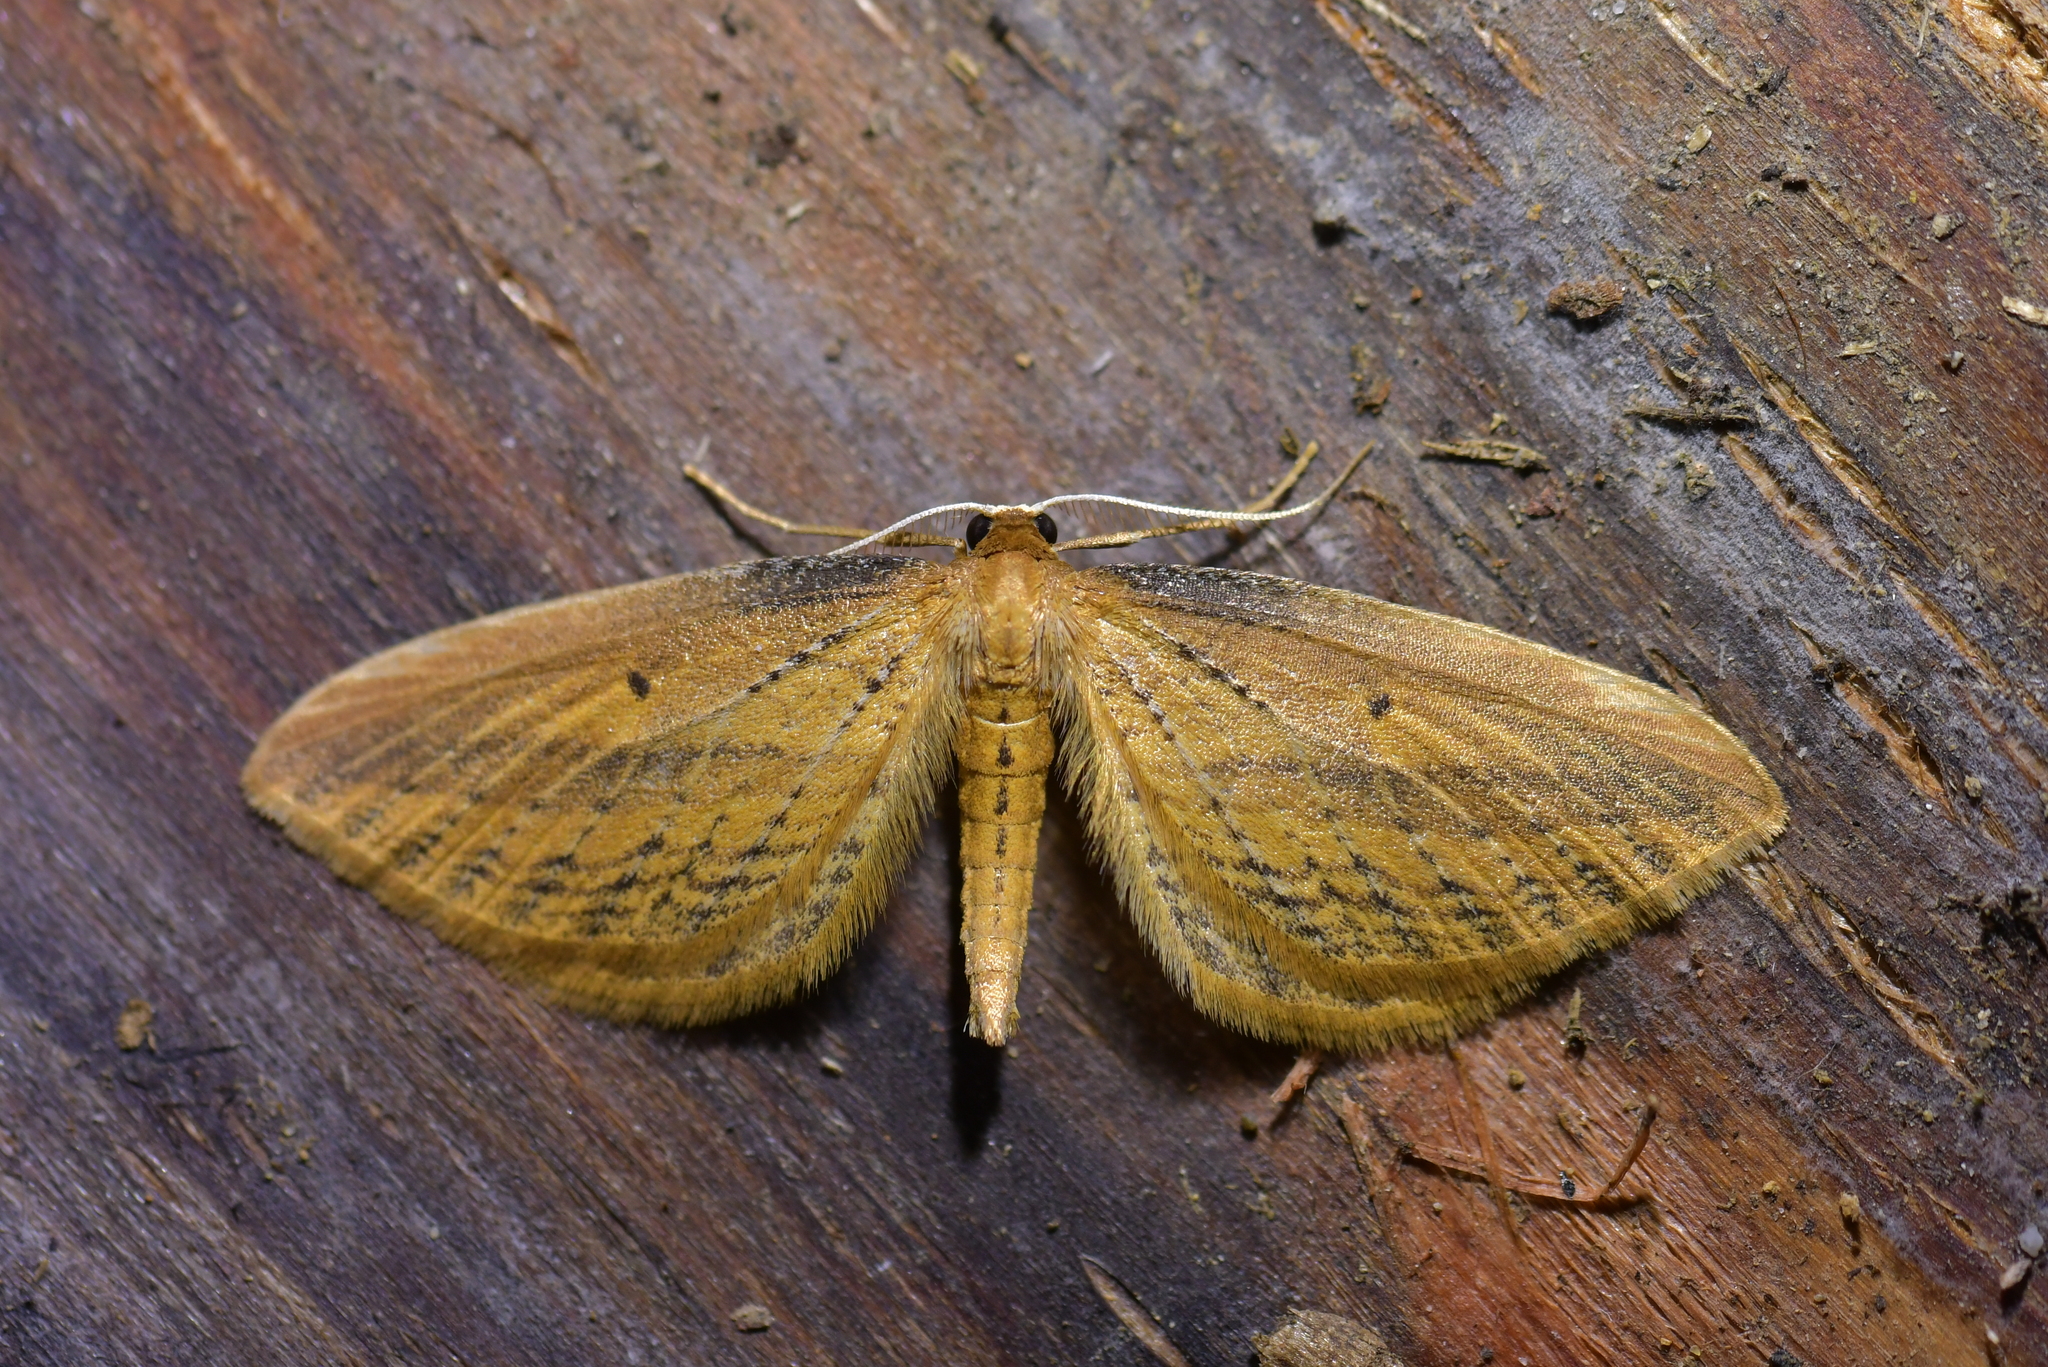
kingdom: Animalia
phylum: Arthropoda
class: Insecta
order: Lepidoptera
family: Geometridae
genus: Epiphryne
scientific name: Epiphryne charidema
